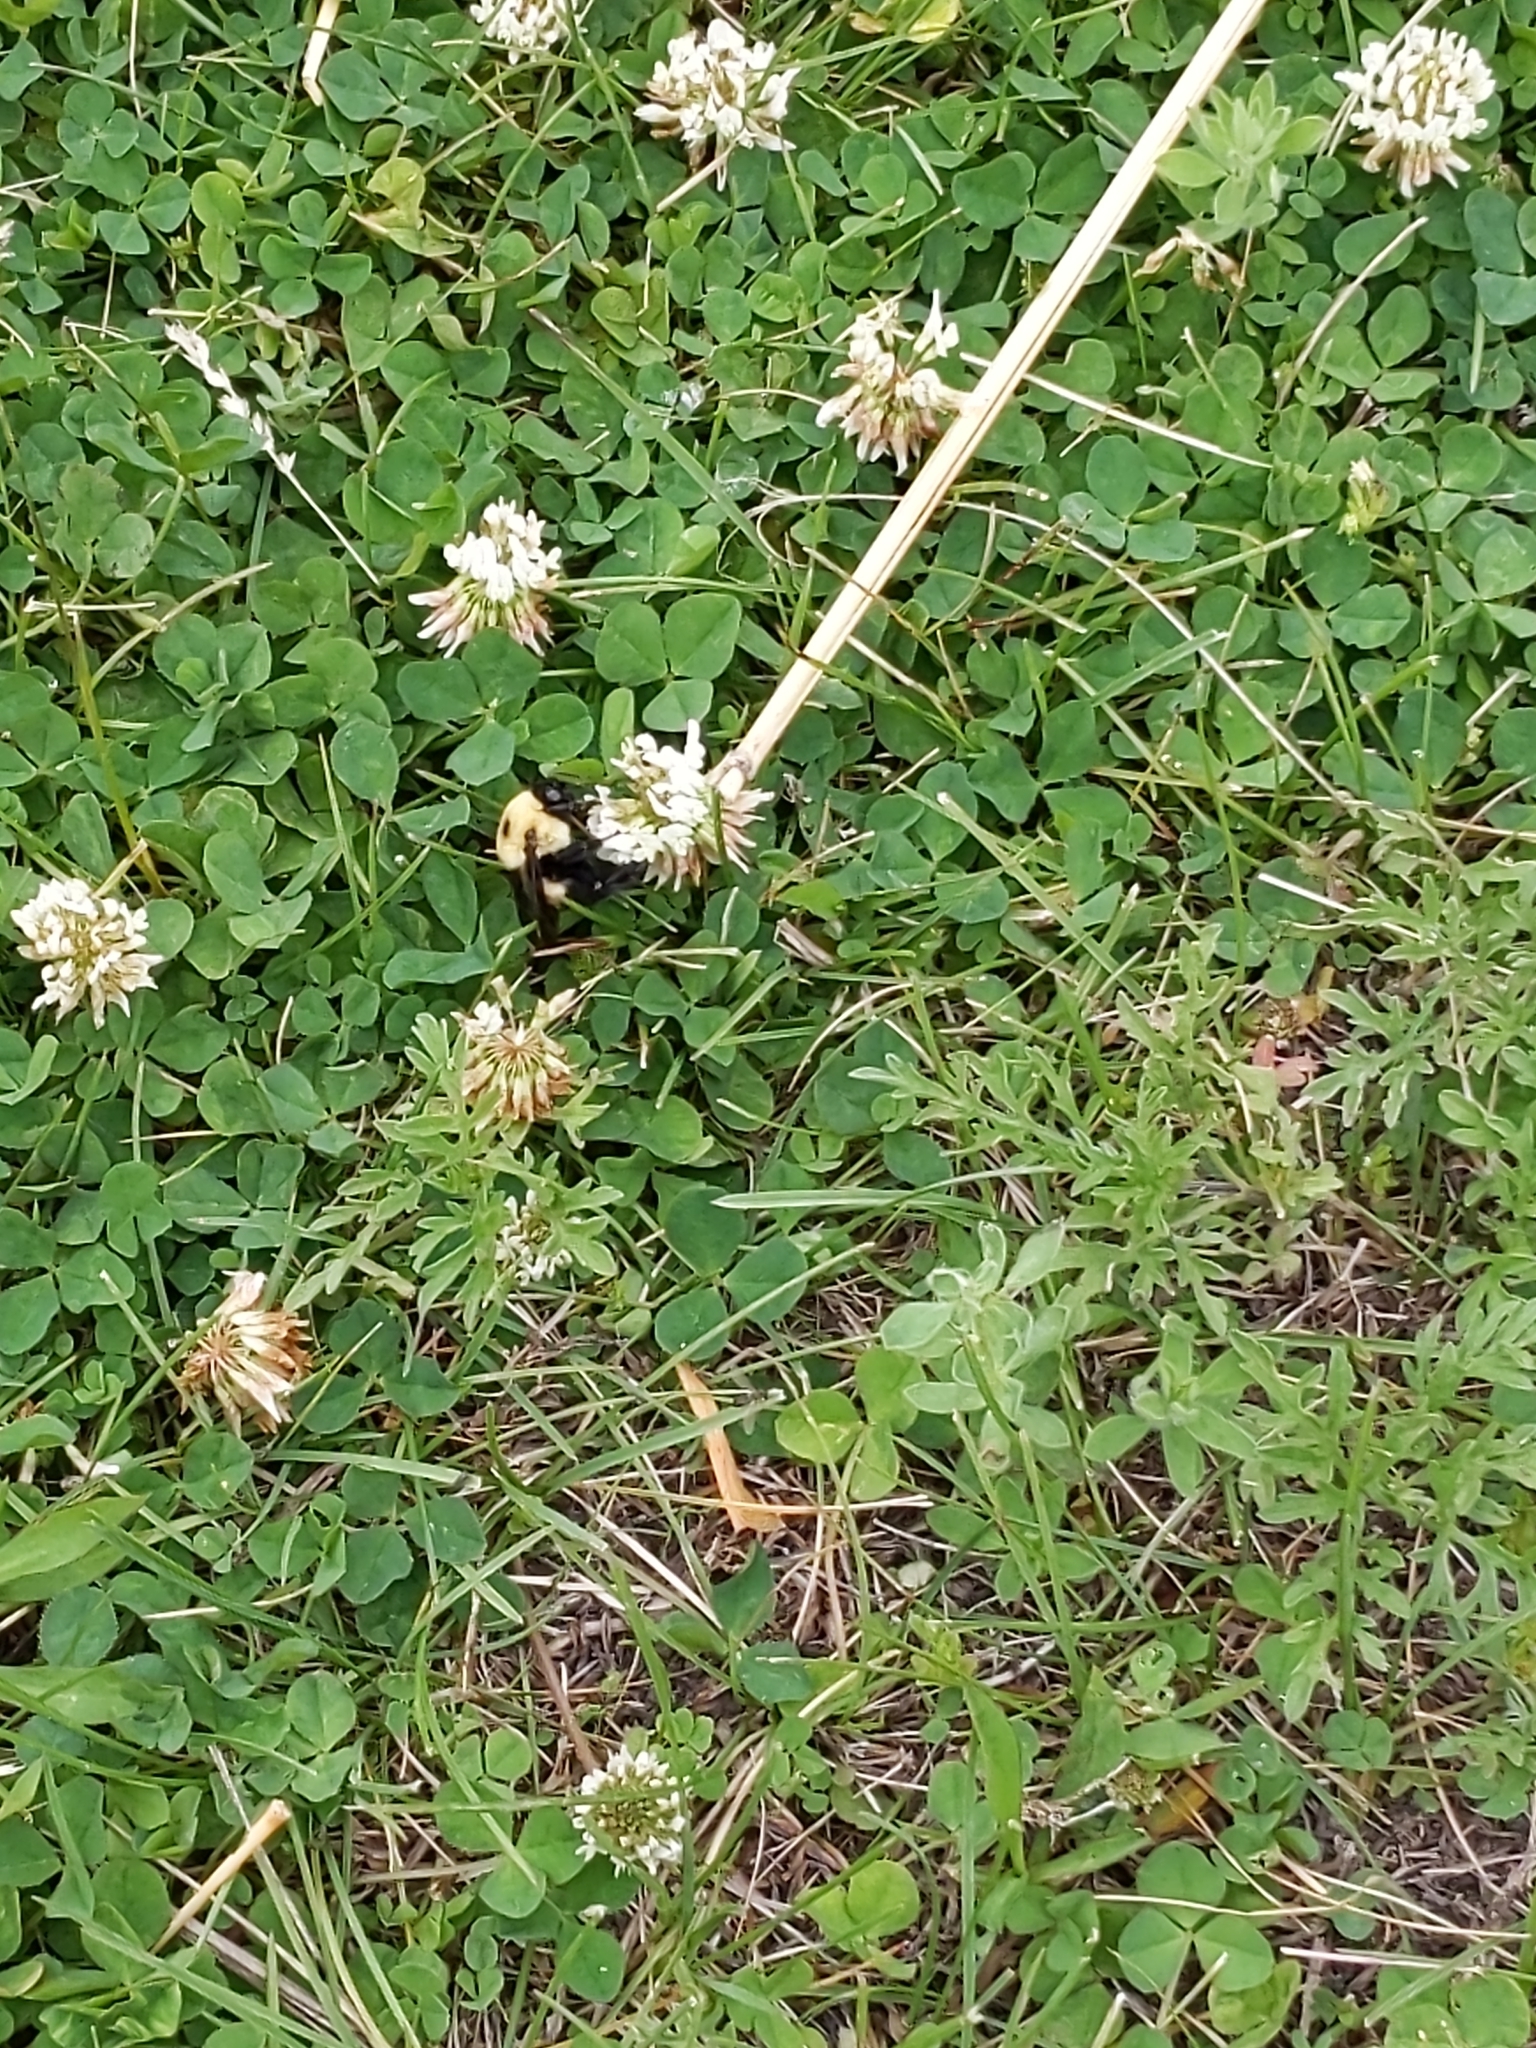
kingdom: Animalia
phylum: Arthropoda
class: Insecta
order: Hymenoptera
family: Apidae
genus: Bombus
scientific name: Bombus griseocollis
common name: Brown-belted bumble bee
